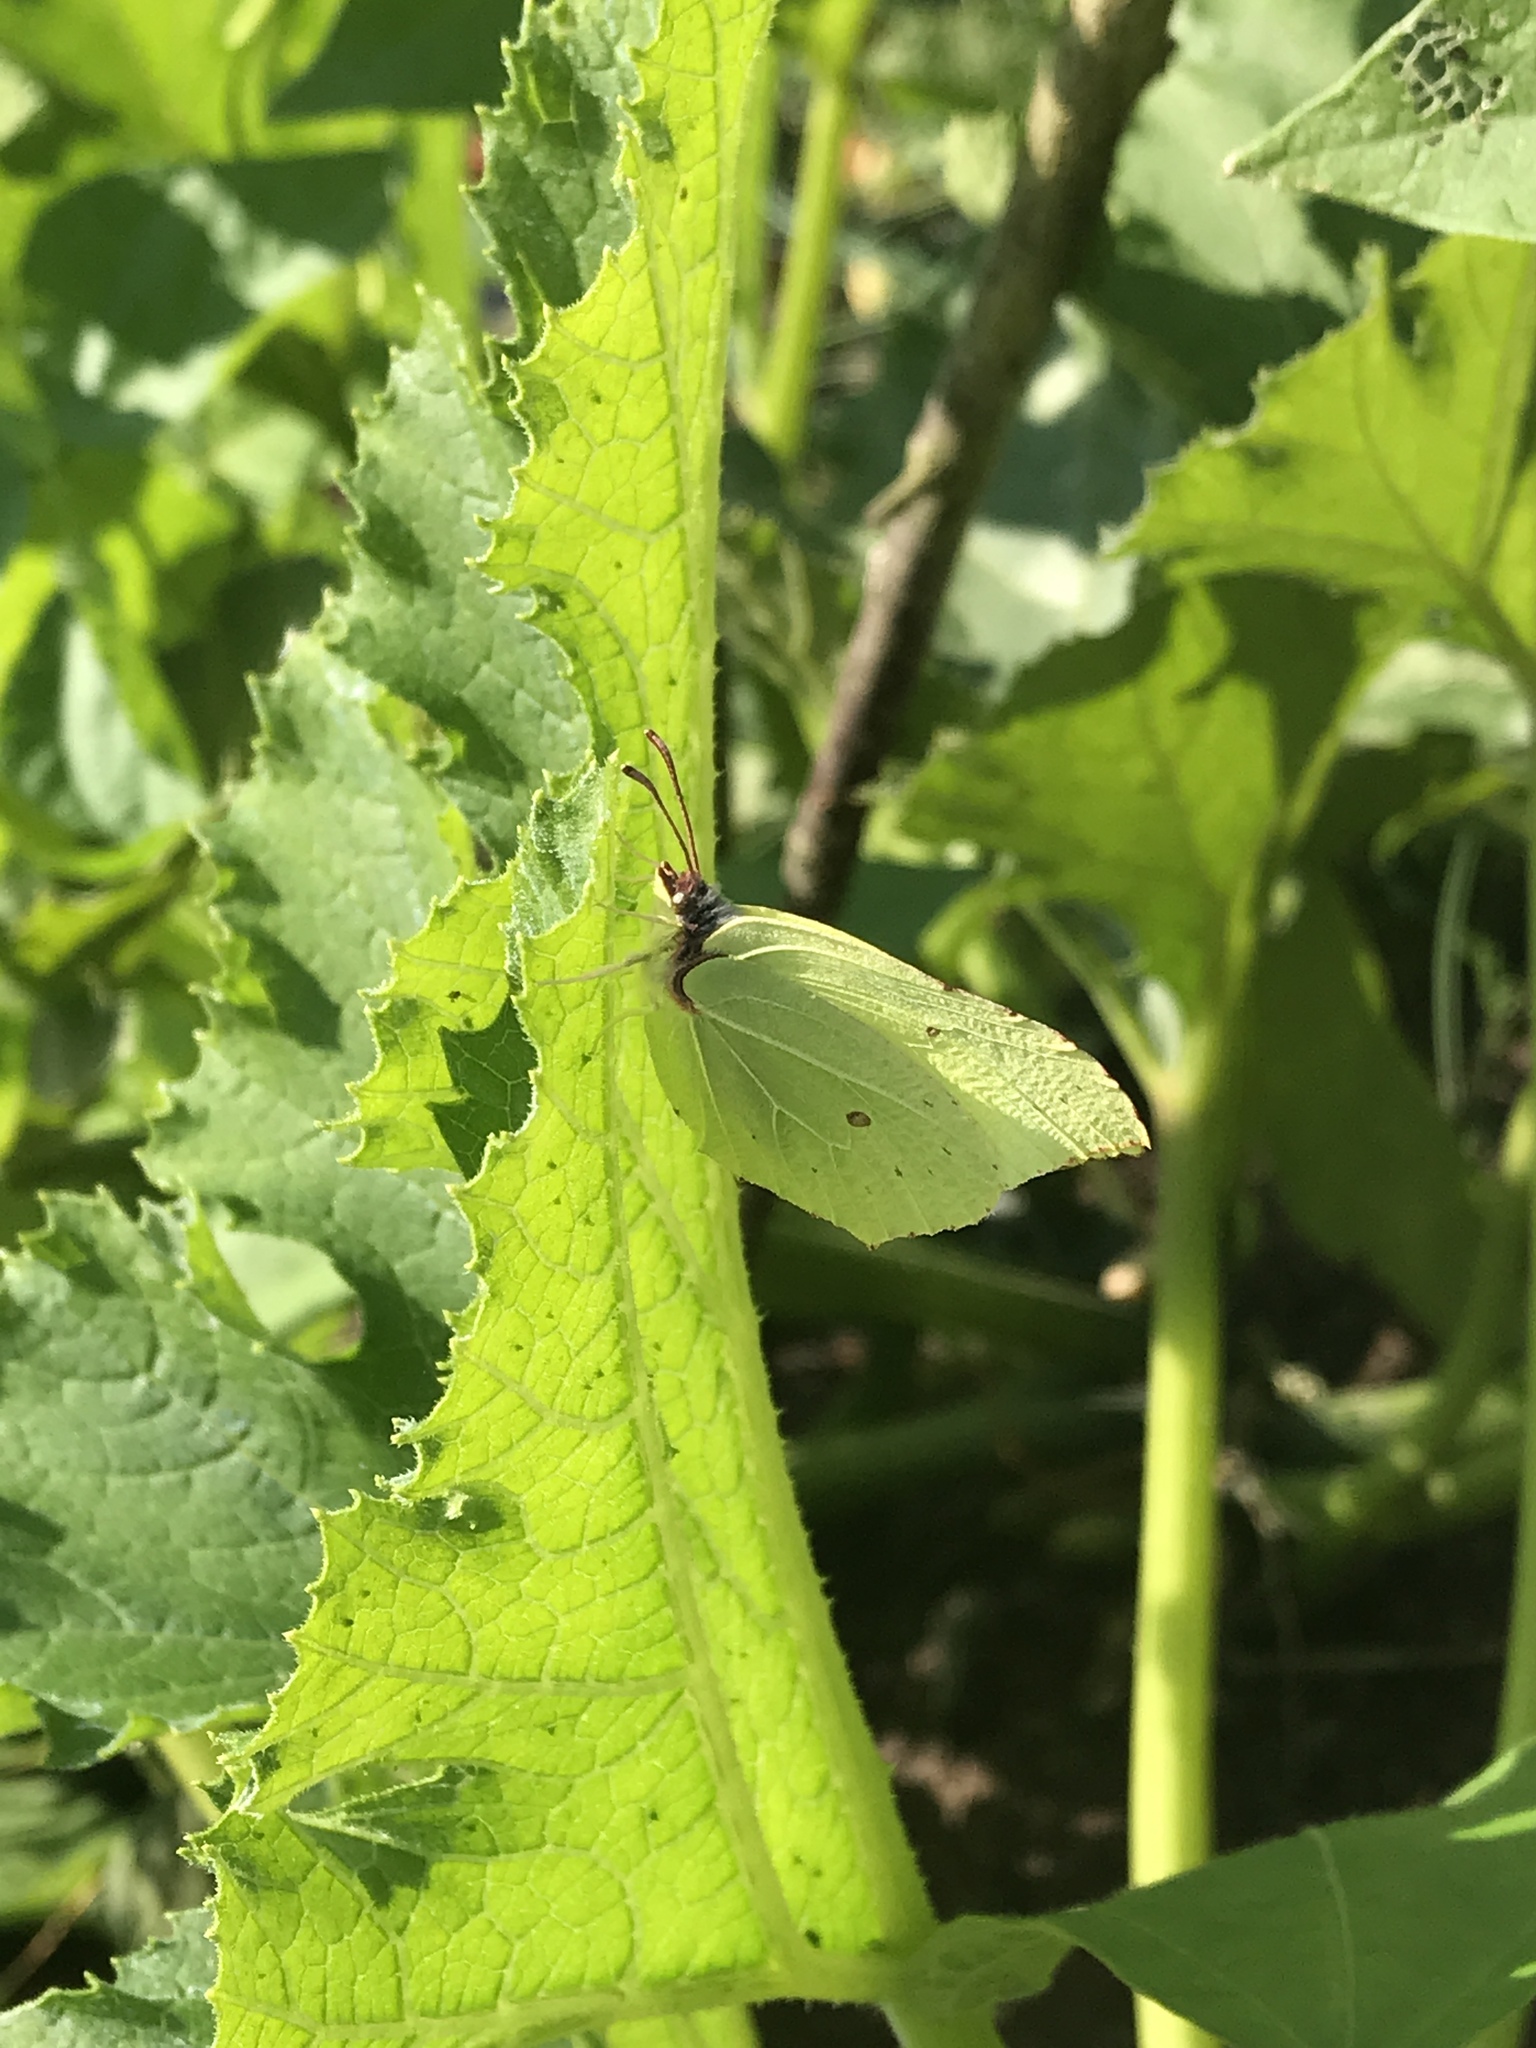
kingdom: Animalia
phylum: Arthropoda
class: Insecta
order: Lepidoptera
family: Pieridae
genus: Gonepteryx
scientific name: Gonepteryx rhamni
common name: Brimstone
